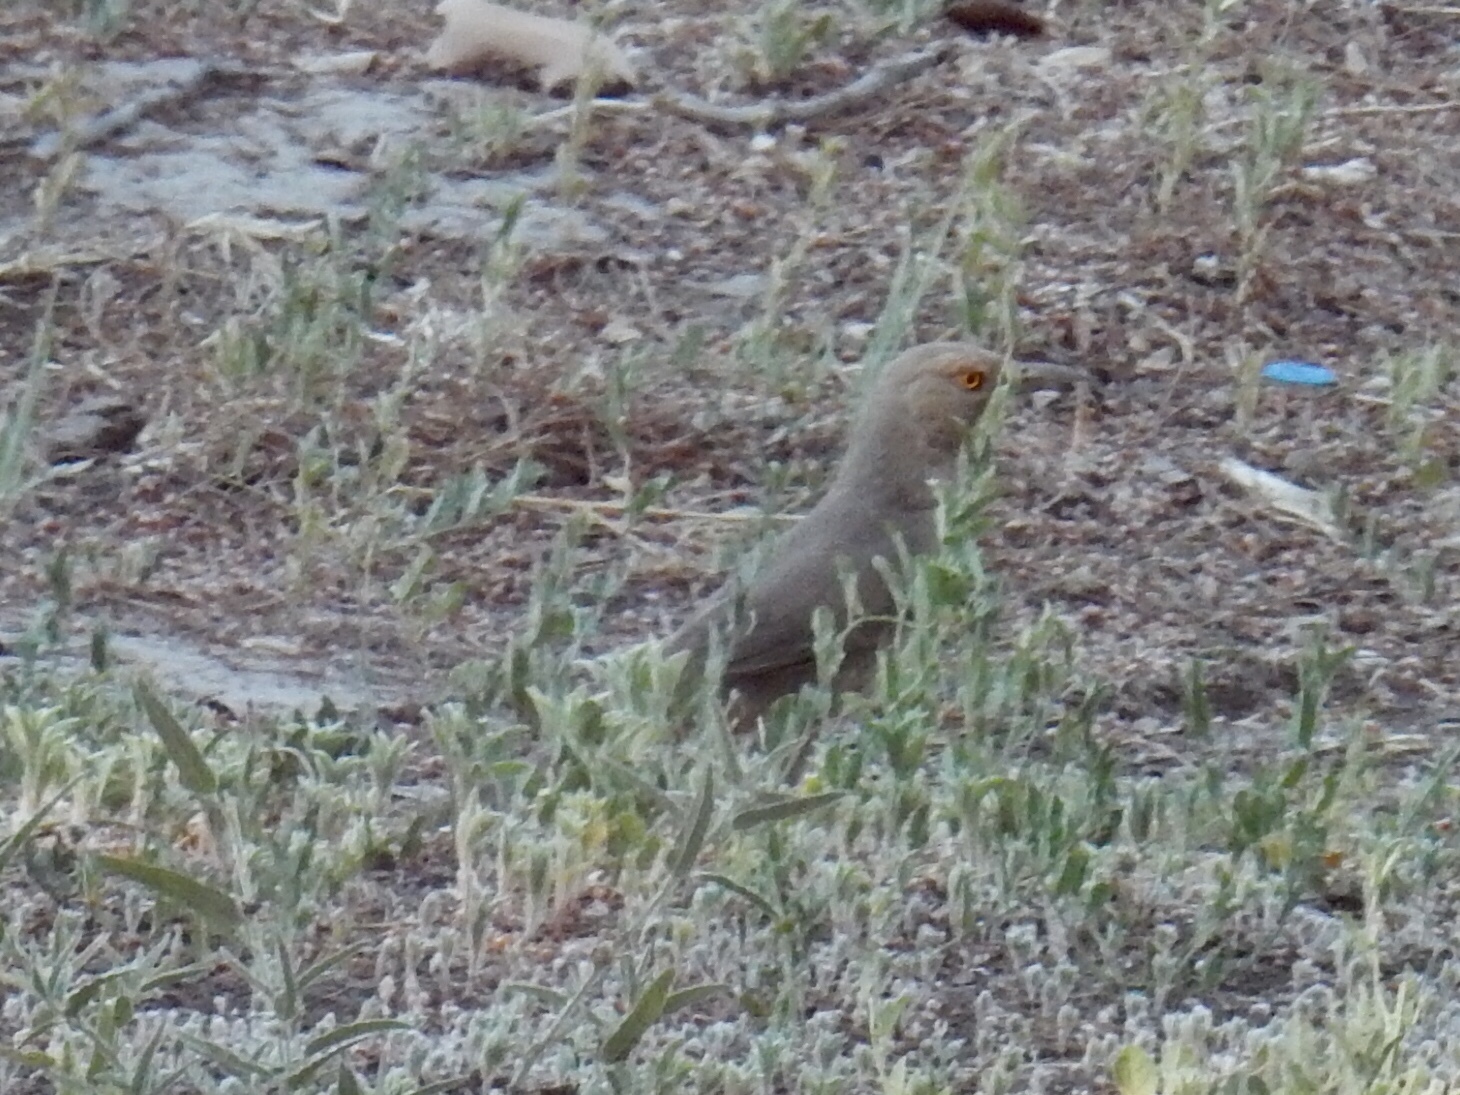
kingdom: Animalia
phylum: Chordata
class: Aves
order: Passeriformes
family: Mimidae
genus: Toxostoma
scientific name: Toxostoma curvirostre
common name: Curve-billed thrasher
